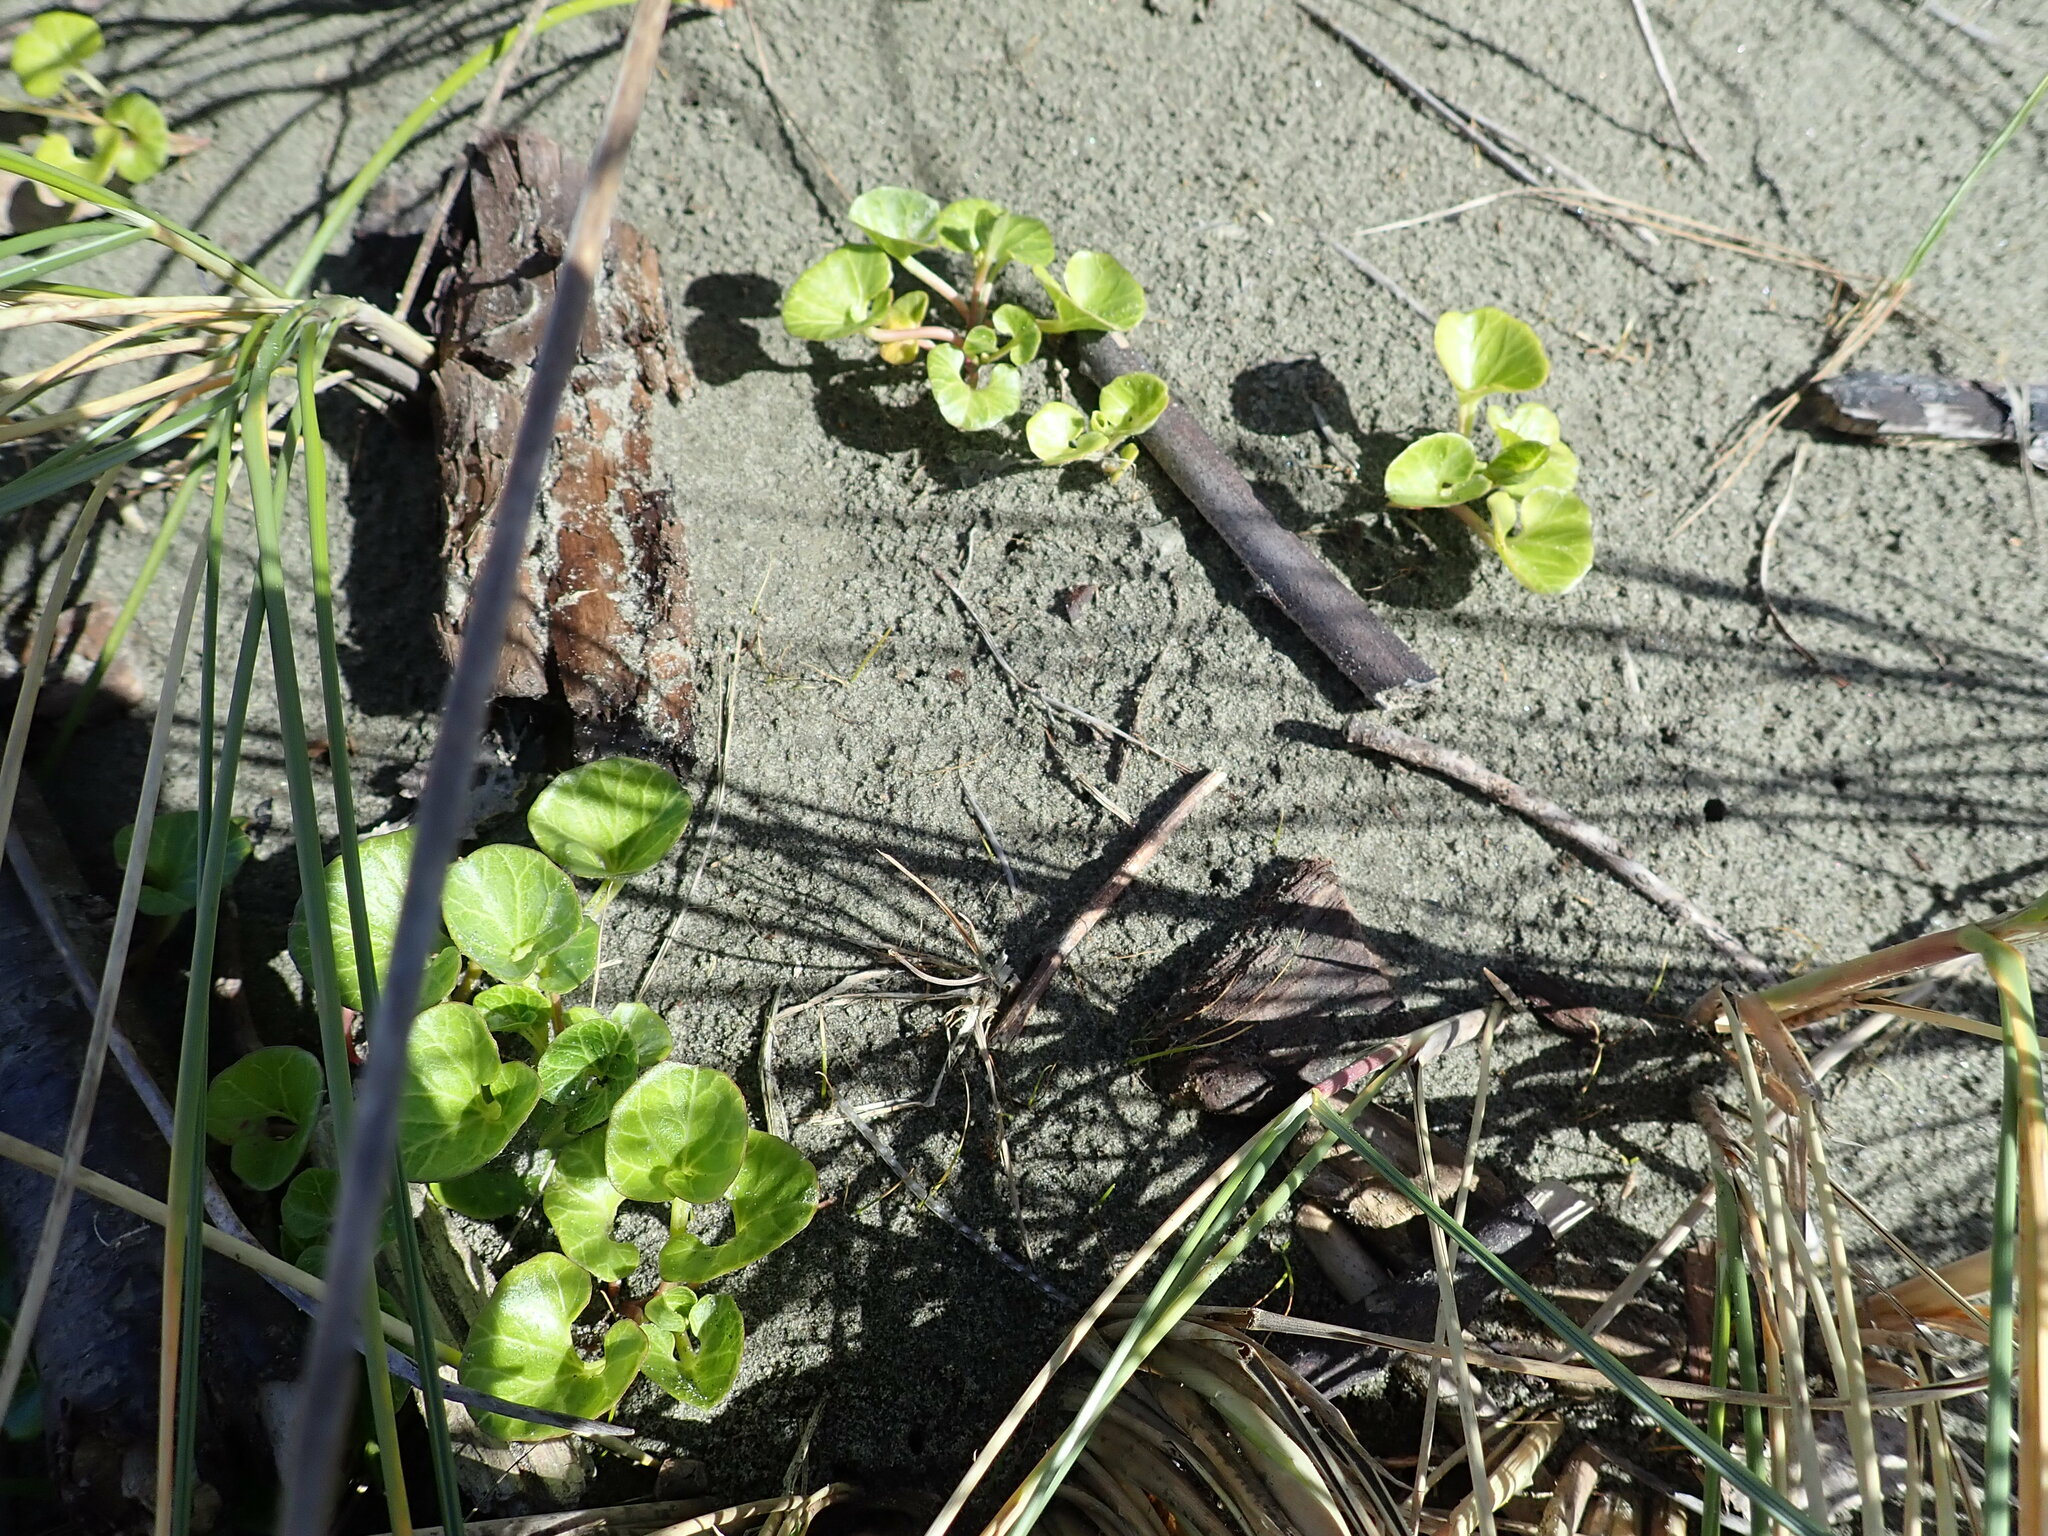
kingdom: Plantae
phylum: Tracheophyta
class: Magnoliopsida
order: Solanales
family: Convolvulaceae
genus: Calystegia
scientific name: Calystegia soldanella
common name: Sea bindweed
